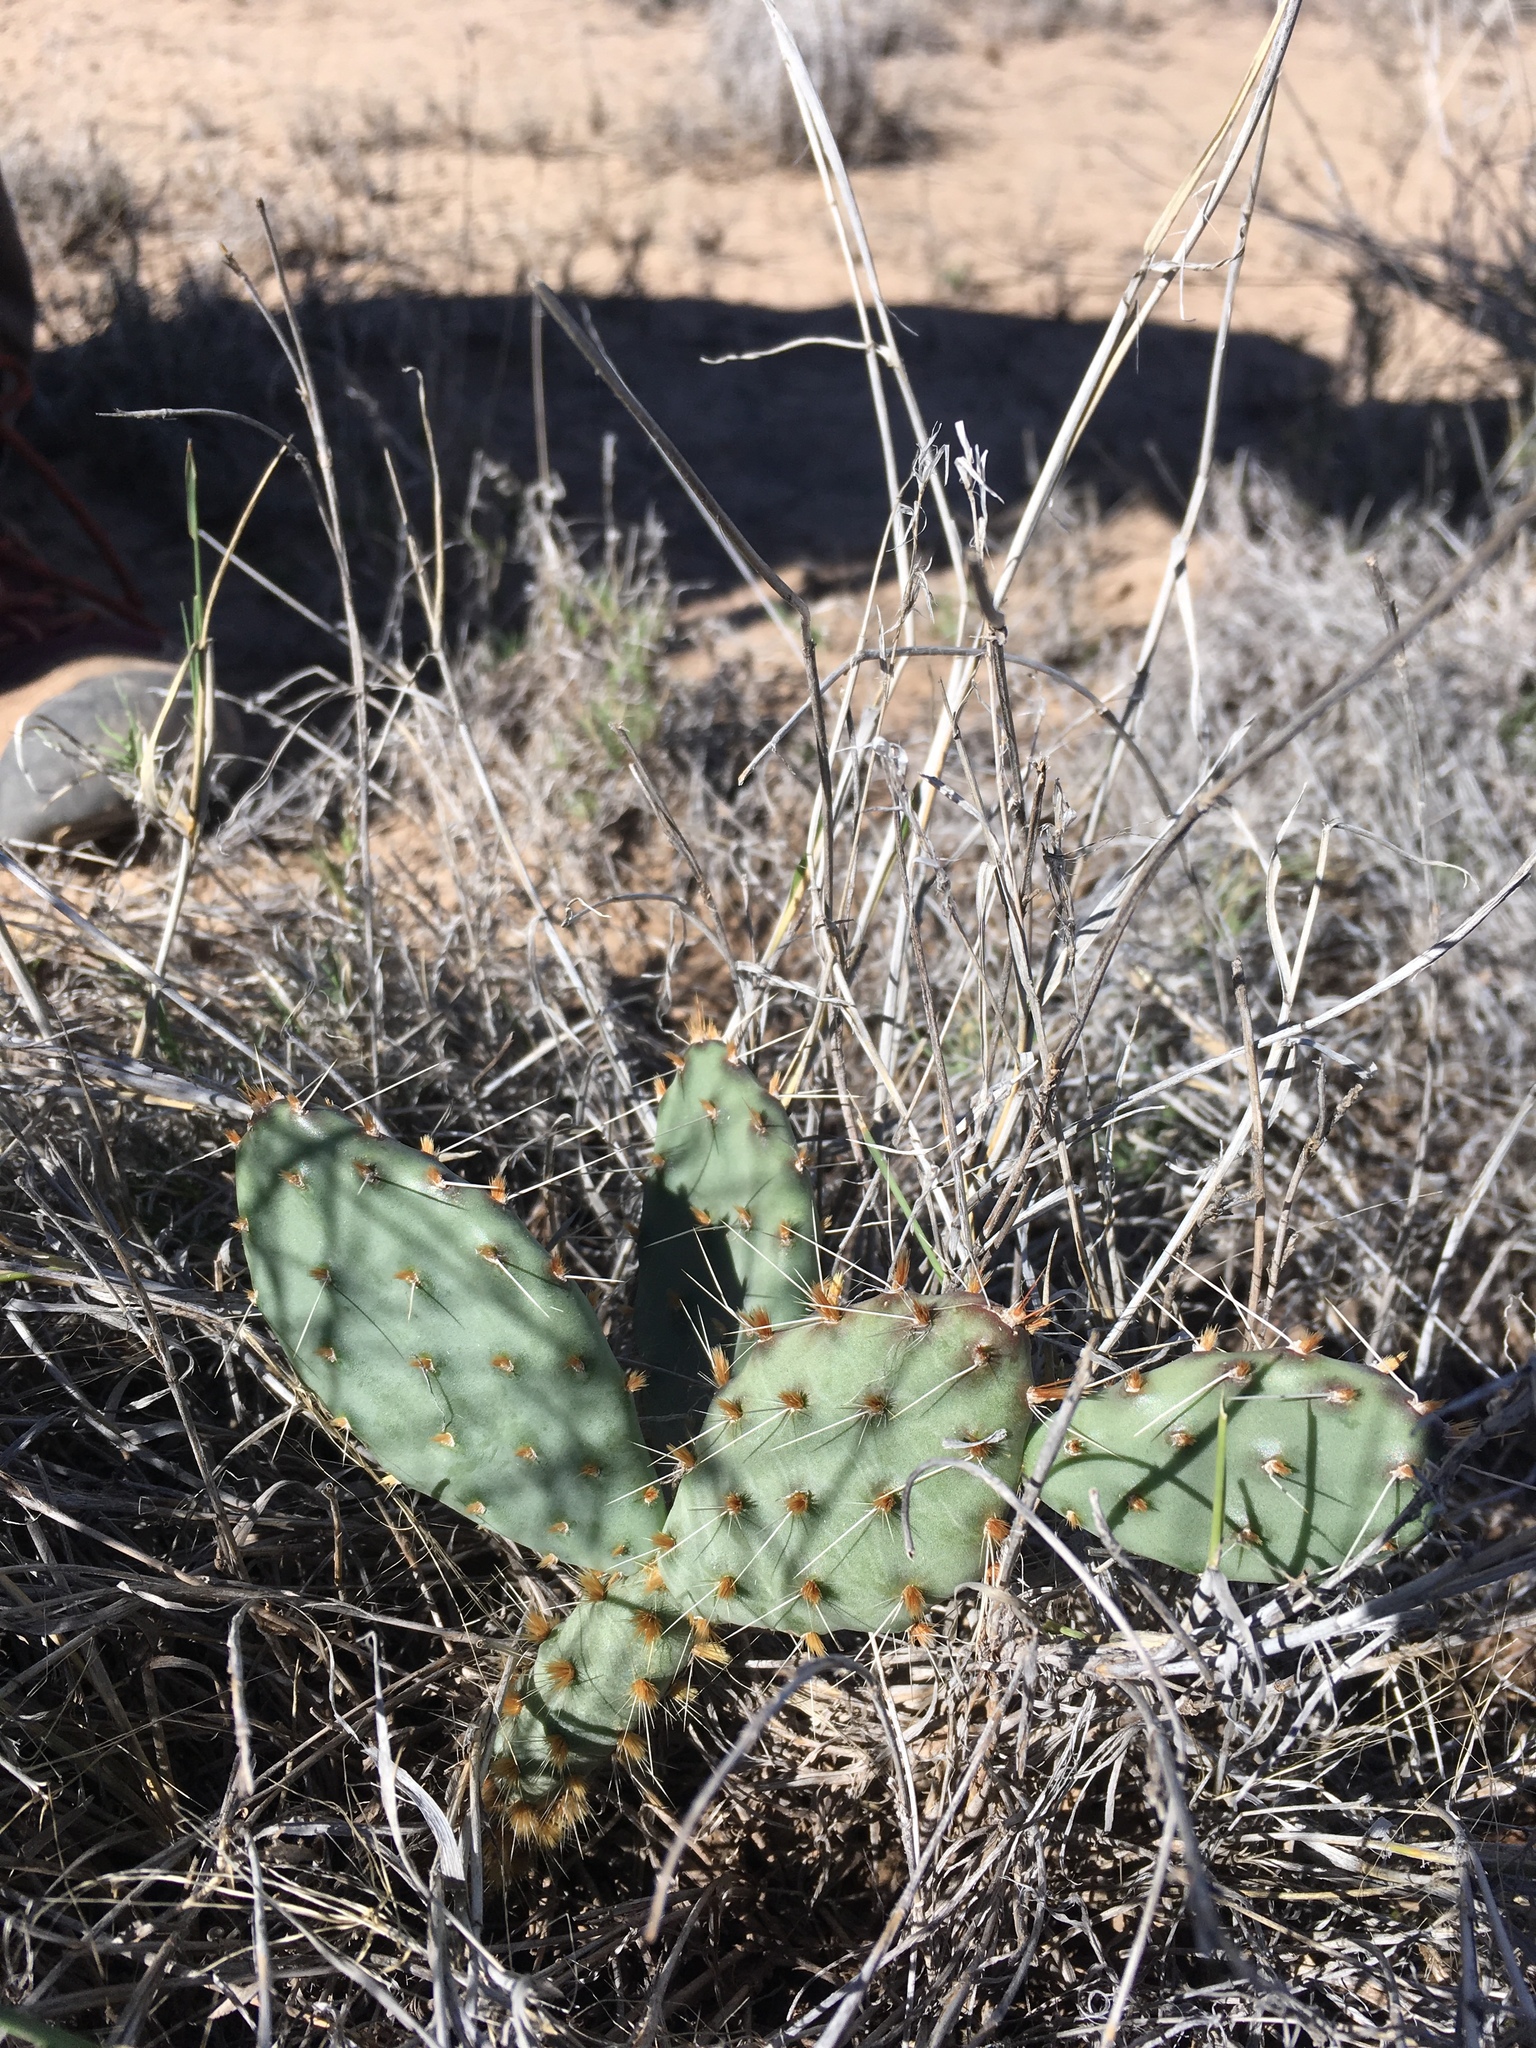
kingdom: Plantae
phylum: Tracheophyta
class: Magnoliopsida
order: Caryophyllales
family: Cactaceae
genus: Opuntia
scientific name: Opuntia pottsii
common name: Potts's prickly-pear
